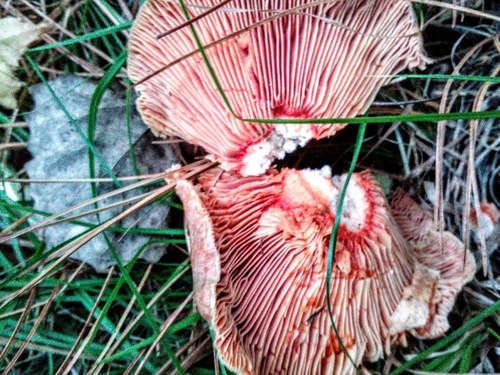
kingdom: Fungi
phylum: Basidiomycota
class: Agaricomycetes
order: Russulales
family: Russulaceae
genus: Lactarius
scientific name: Lactarius deliciosus
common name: Saffron milk-cap
